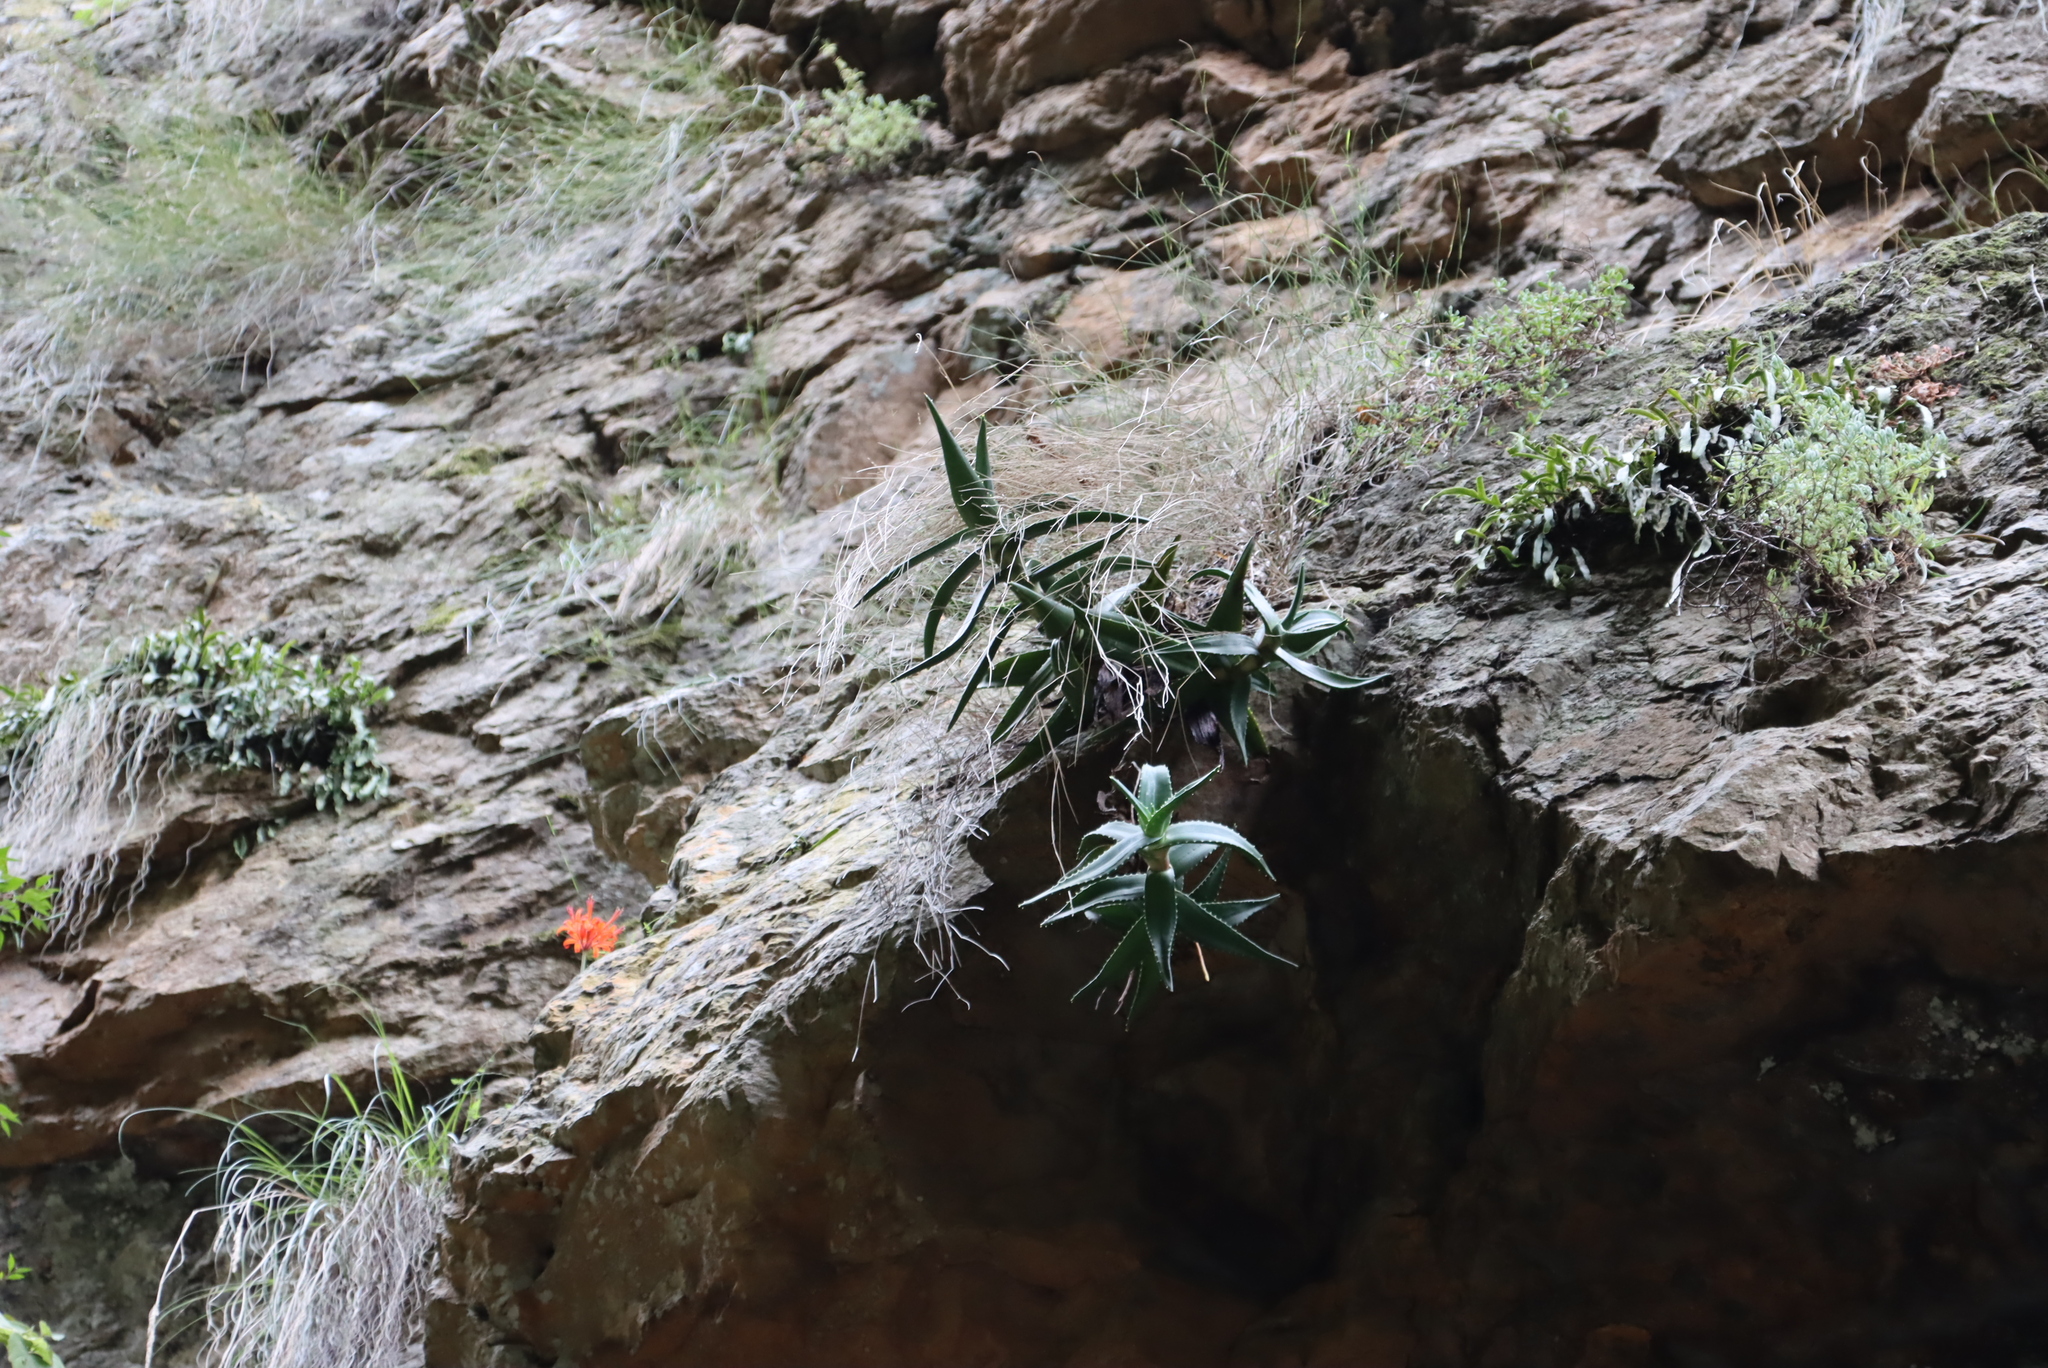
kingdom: Plantae
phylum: Tracheophyta
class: Liliopsida
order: Asparagales
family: Amaryllidaceae
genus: Nerine
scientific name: Nerine sarniensis
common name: Guernsey-lily
